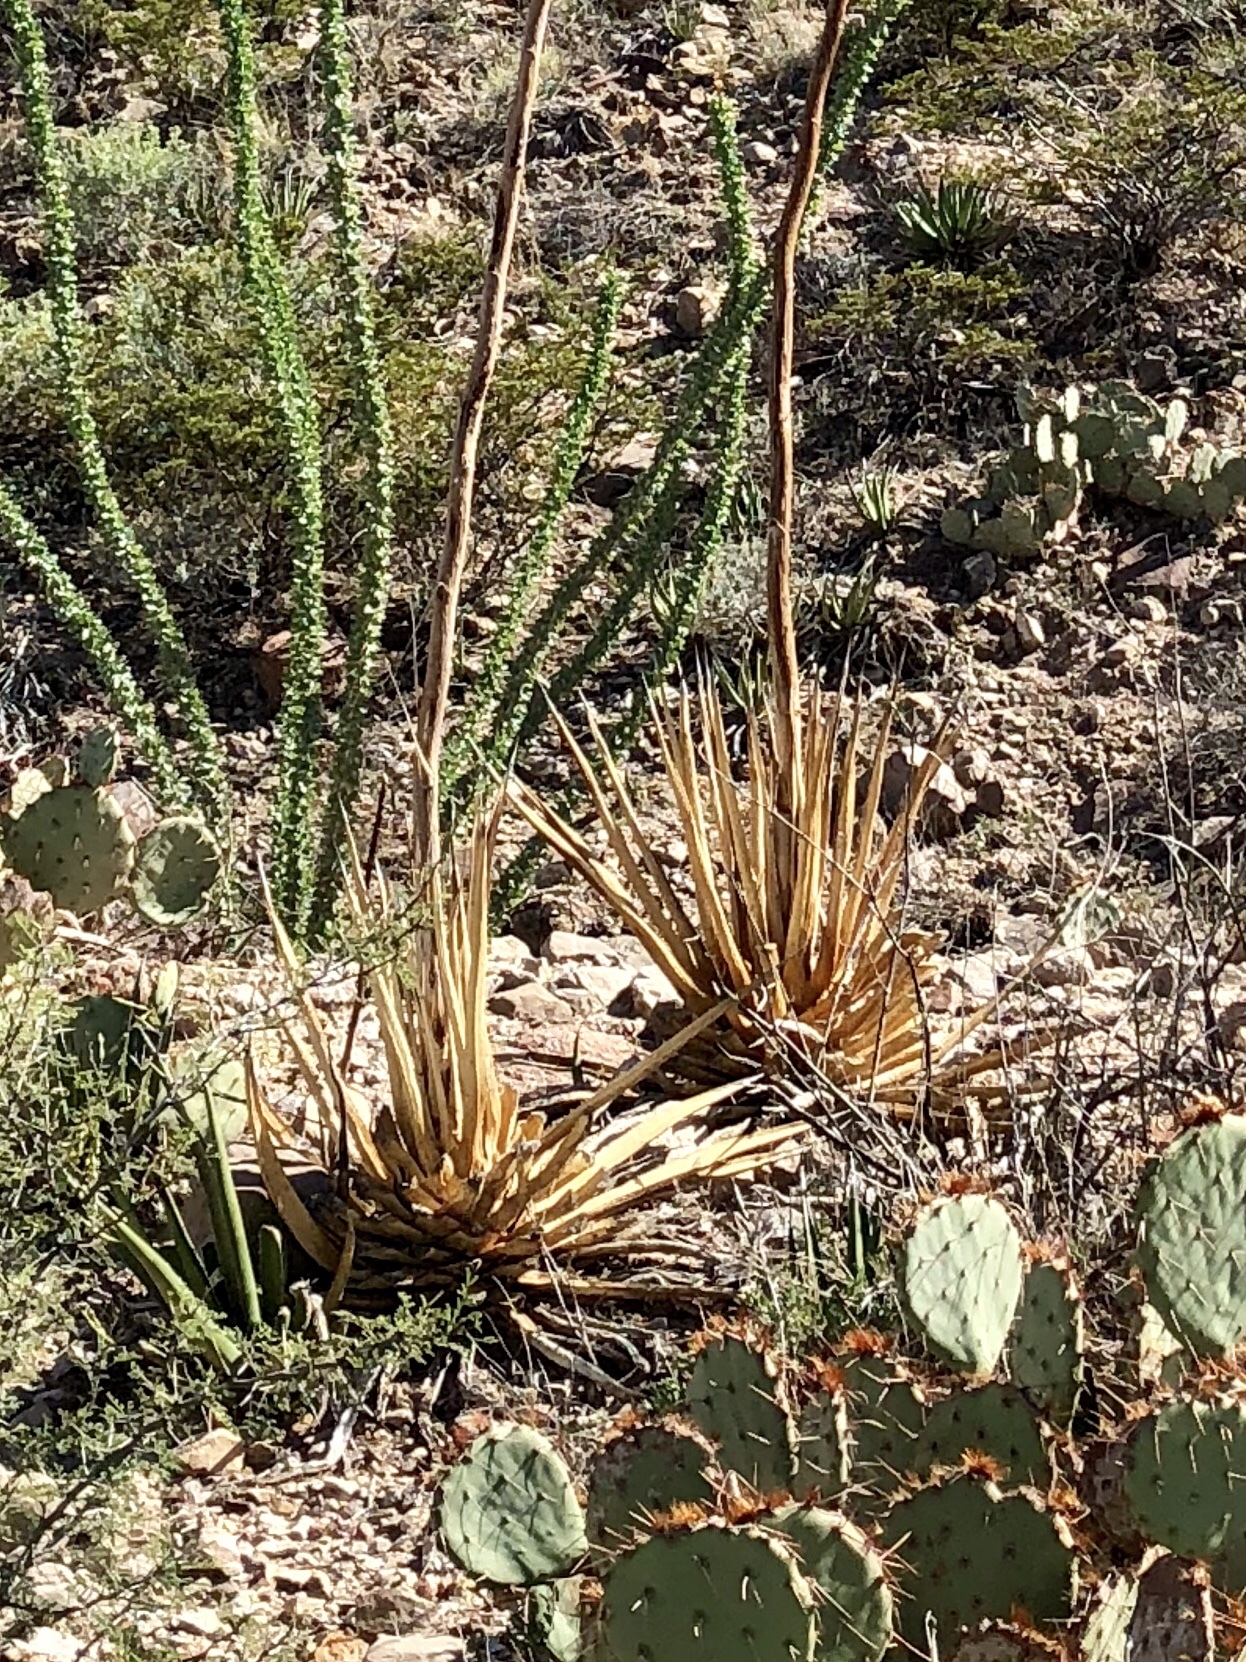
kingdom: Plantae
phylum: Tracheophyta
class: Liliopsida
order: Asparagales
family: Asparagaceae
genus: Agave
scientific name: Agave lechuguilla
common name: Lecheguilla agave
